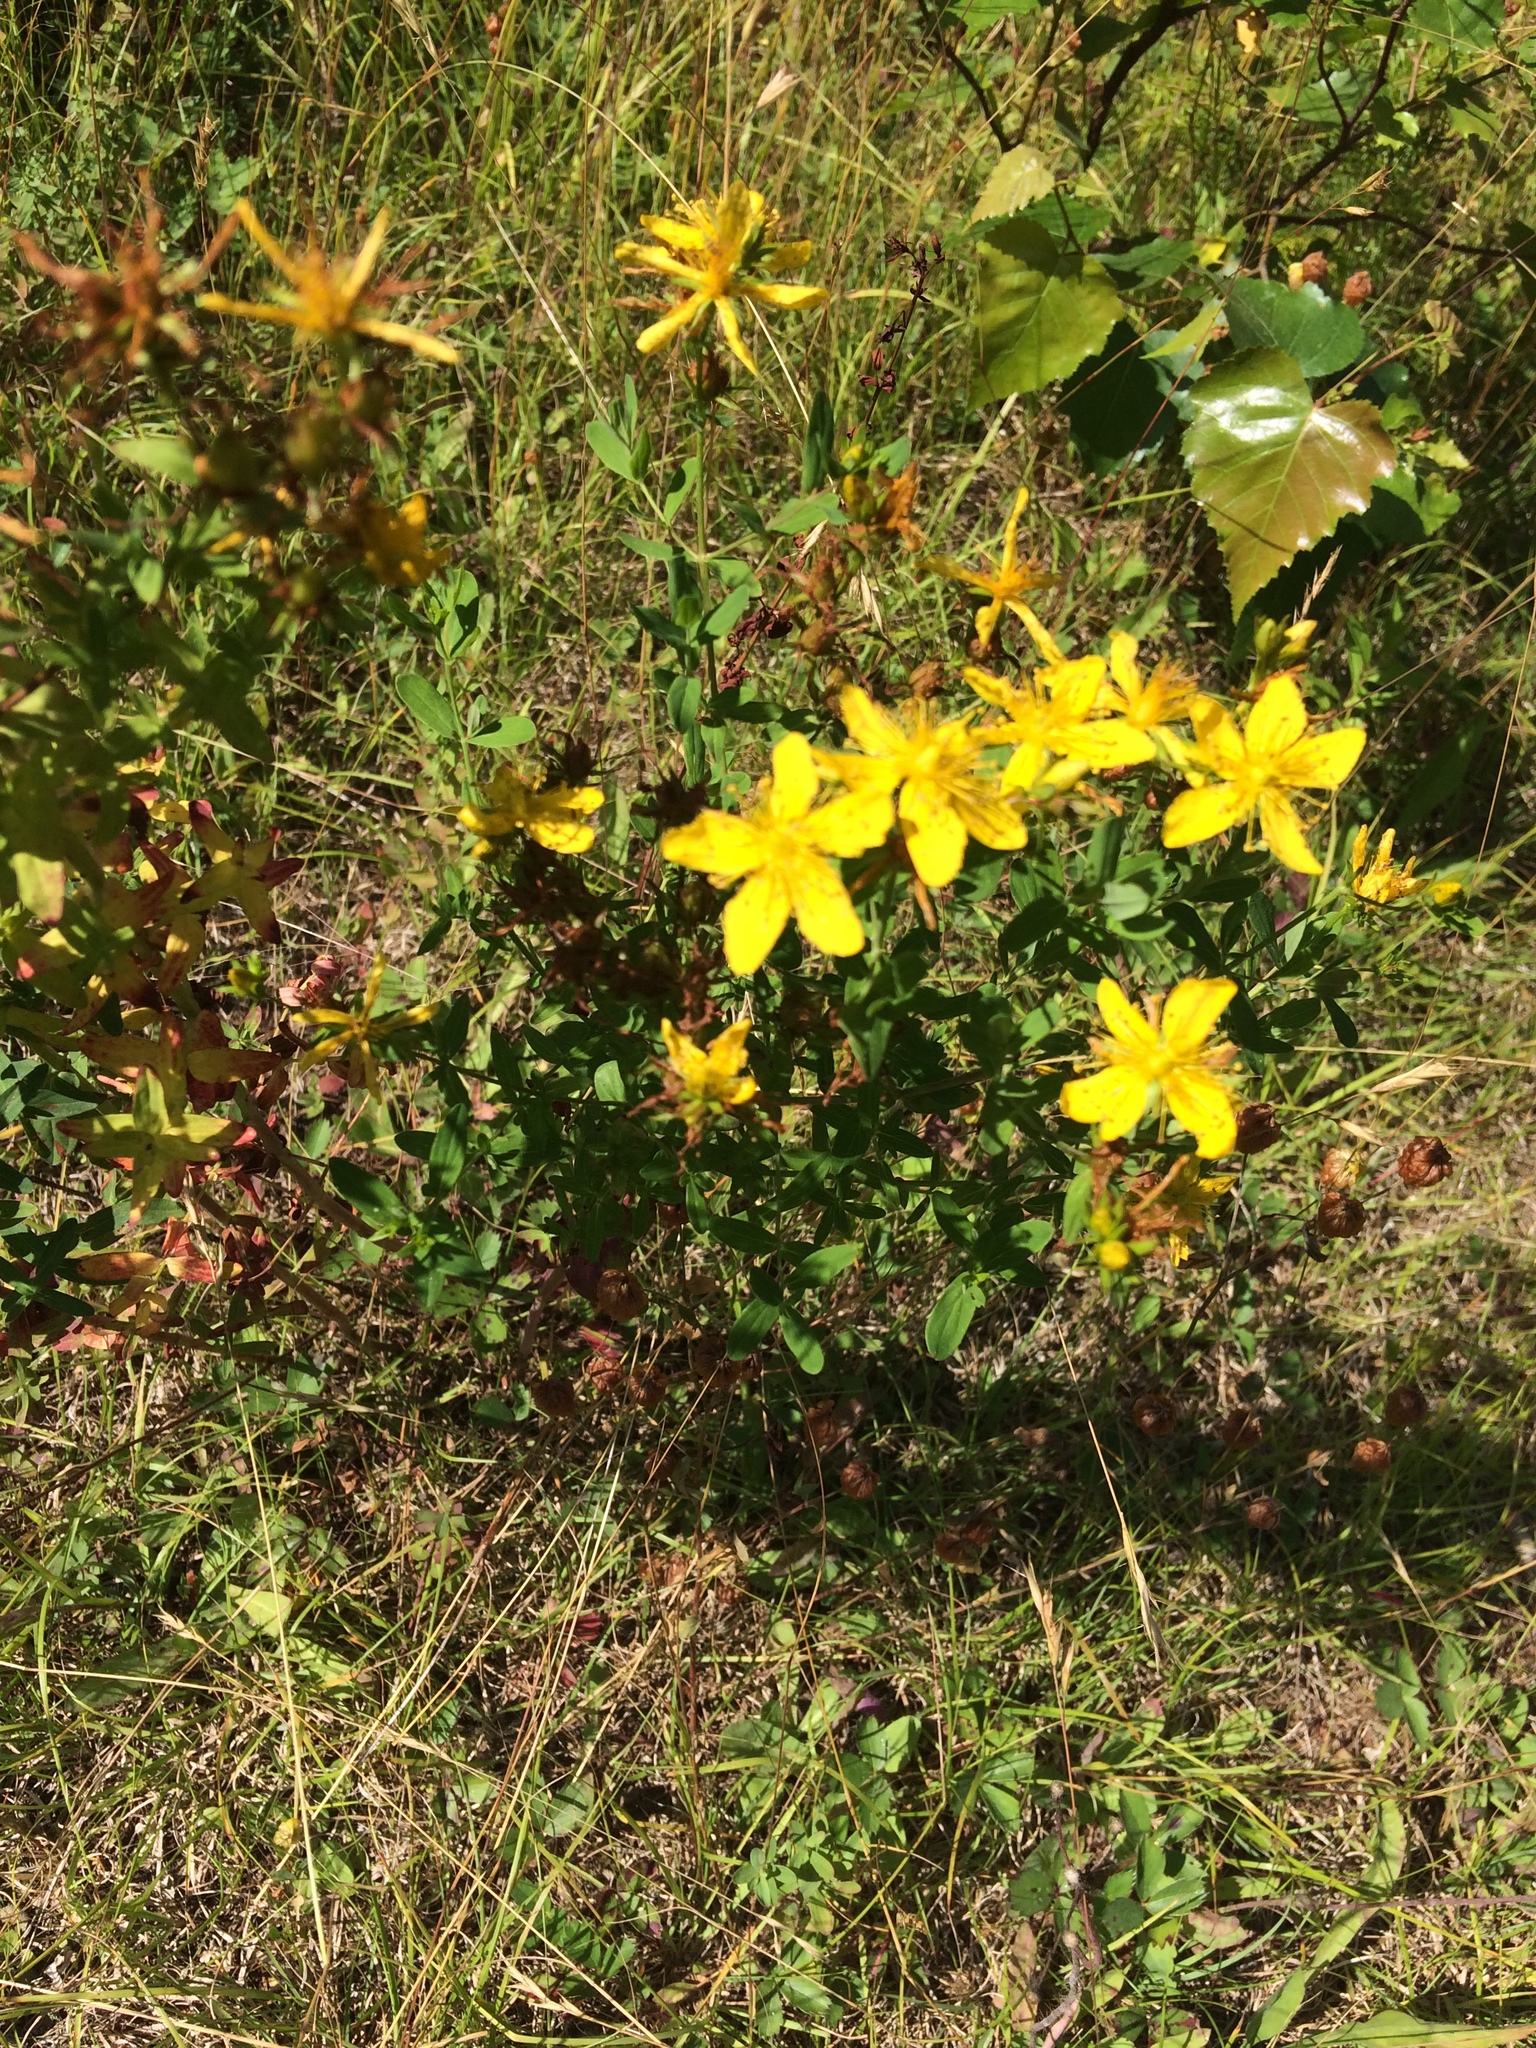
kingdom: Plantae
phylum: Tracheophyta
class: Magnoliopsida
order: Malpighiales
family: Hypericaceae
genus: Hypericum
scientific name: Hypericum perforatum
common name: Common st. johnswort
